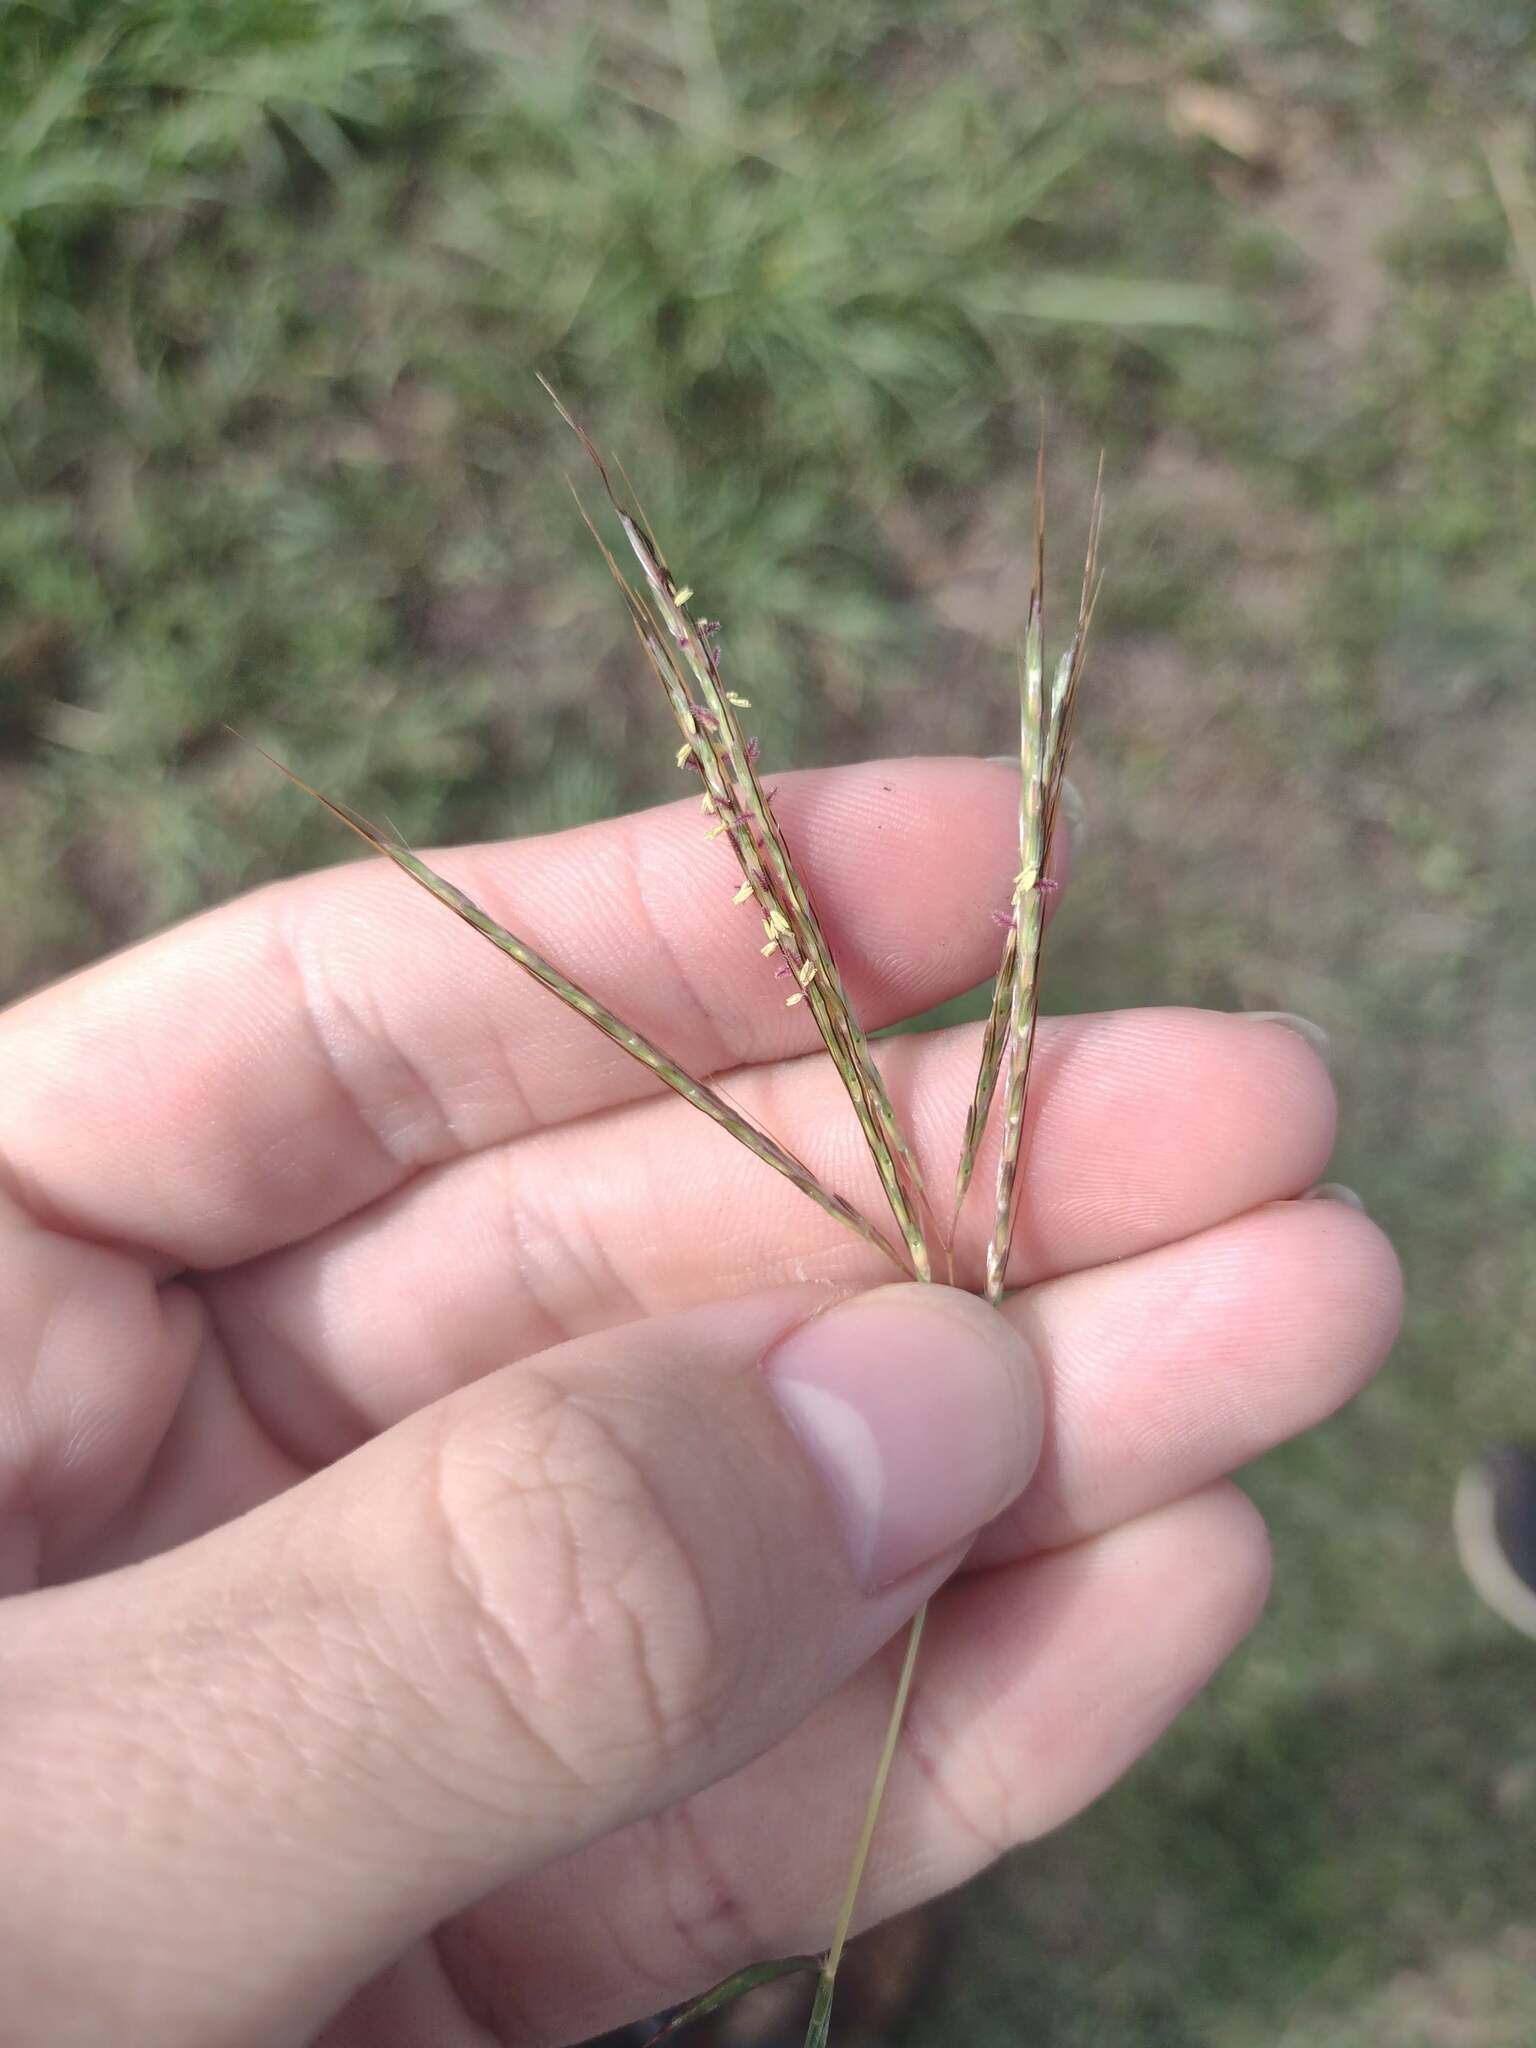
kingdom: Plantae
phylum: Tracheophyta
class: Liliopsida
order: Poales
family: Poaceae
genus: Bothriochloa
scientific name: Bothriochloa pertusa
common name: Pitted beardgrass
